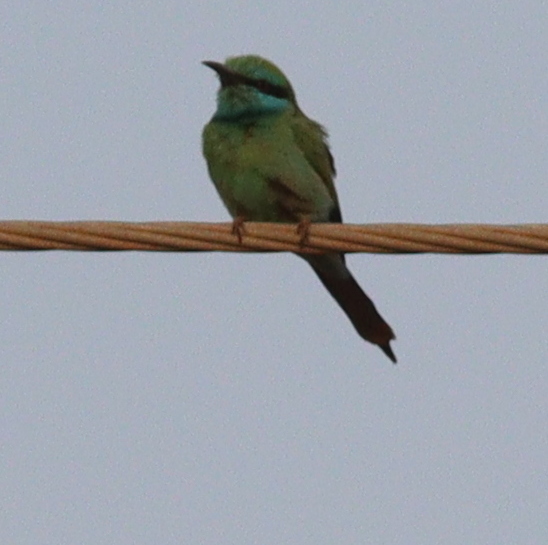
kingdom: Animalia
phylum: Chordata
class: Aves
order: Coraciiformes
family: Meropidae
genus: Merops
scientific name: Merops cyanophrys
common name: Arabian green bee-eater
